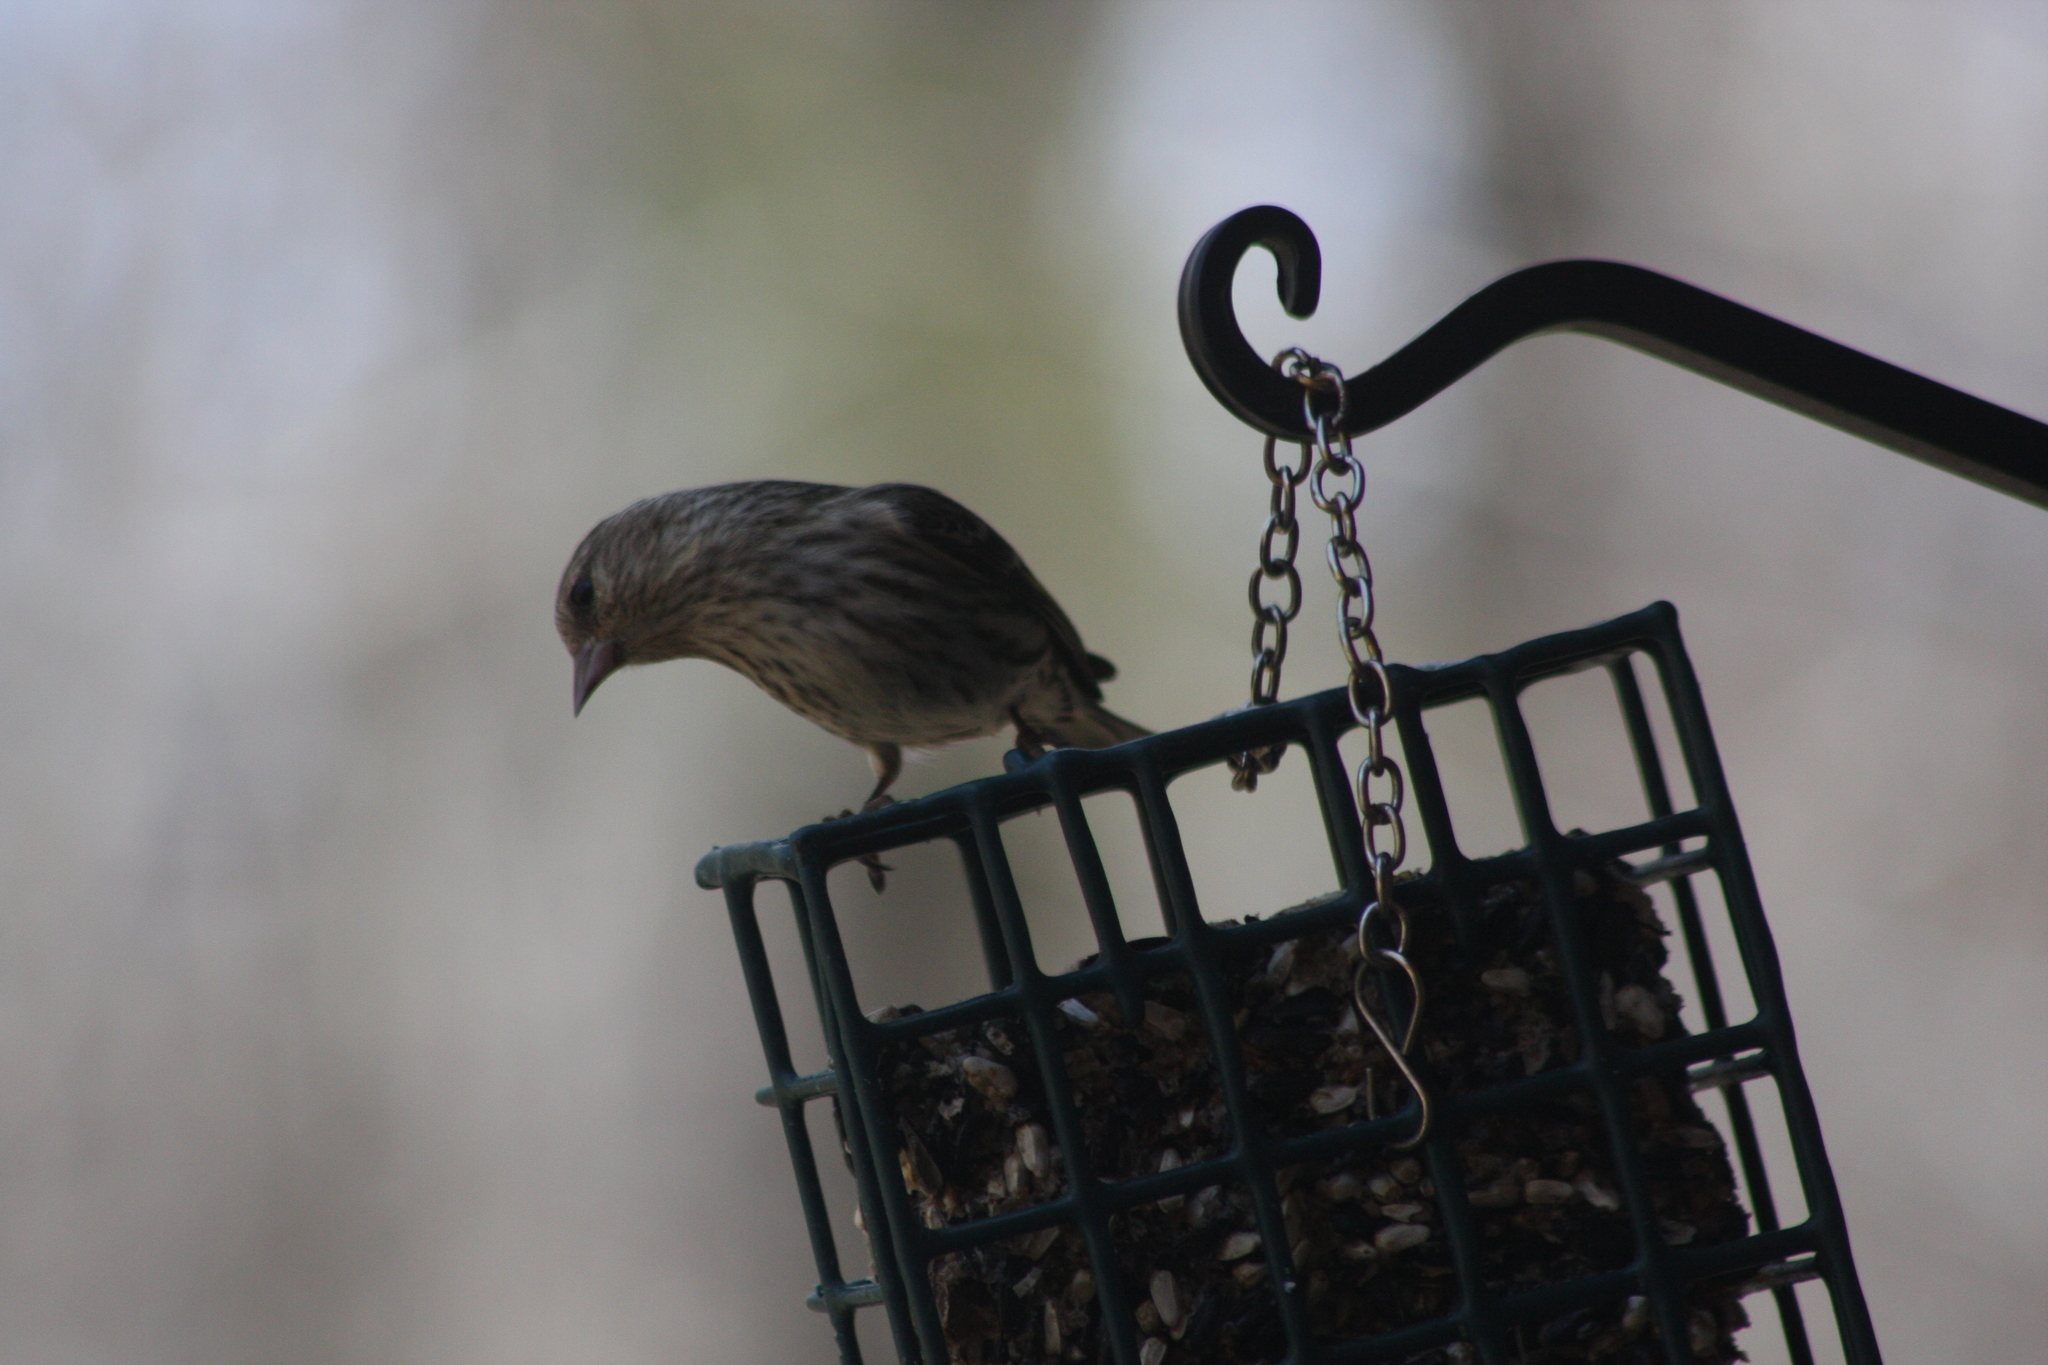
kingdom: Animalia
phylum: Chordata
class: Aves
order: Passeriformes
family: Fringillidae
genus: Spinus
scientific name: Spinus pinus
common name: Pine siskin
